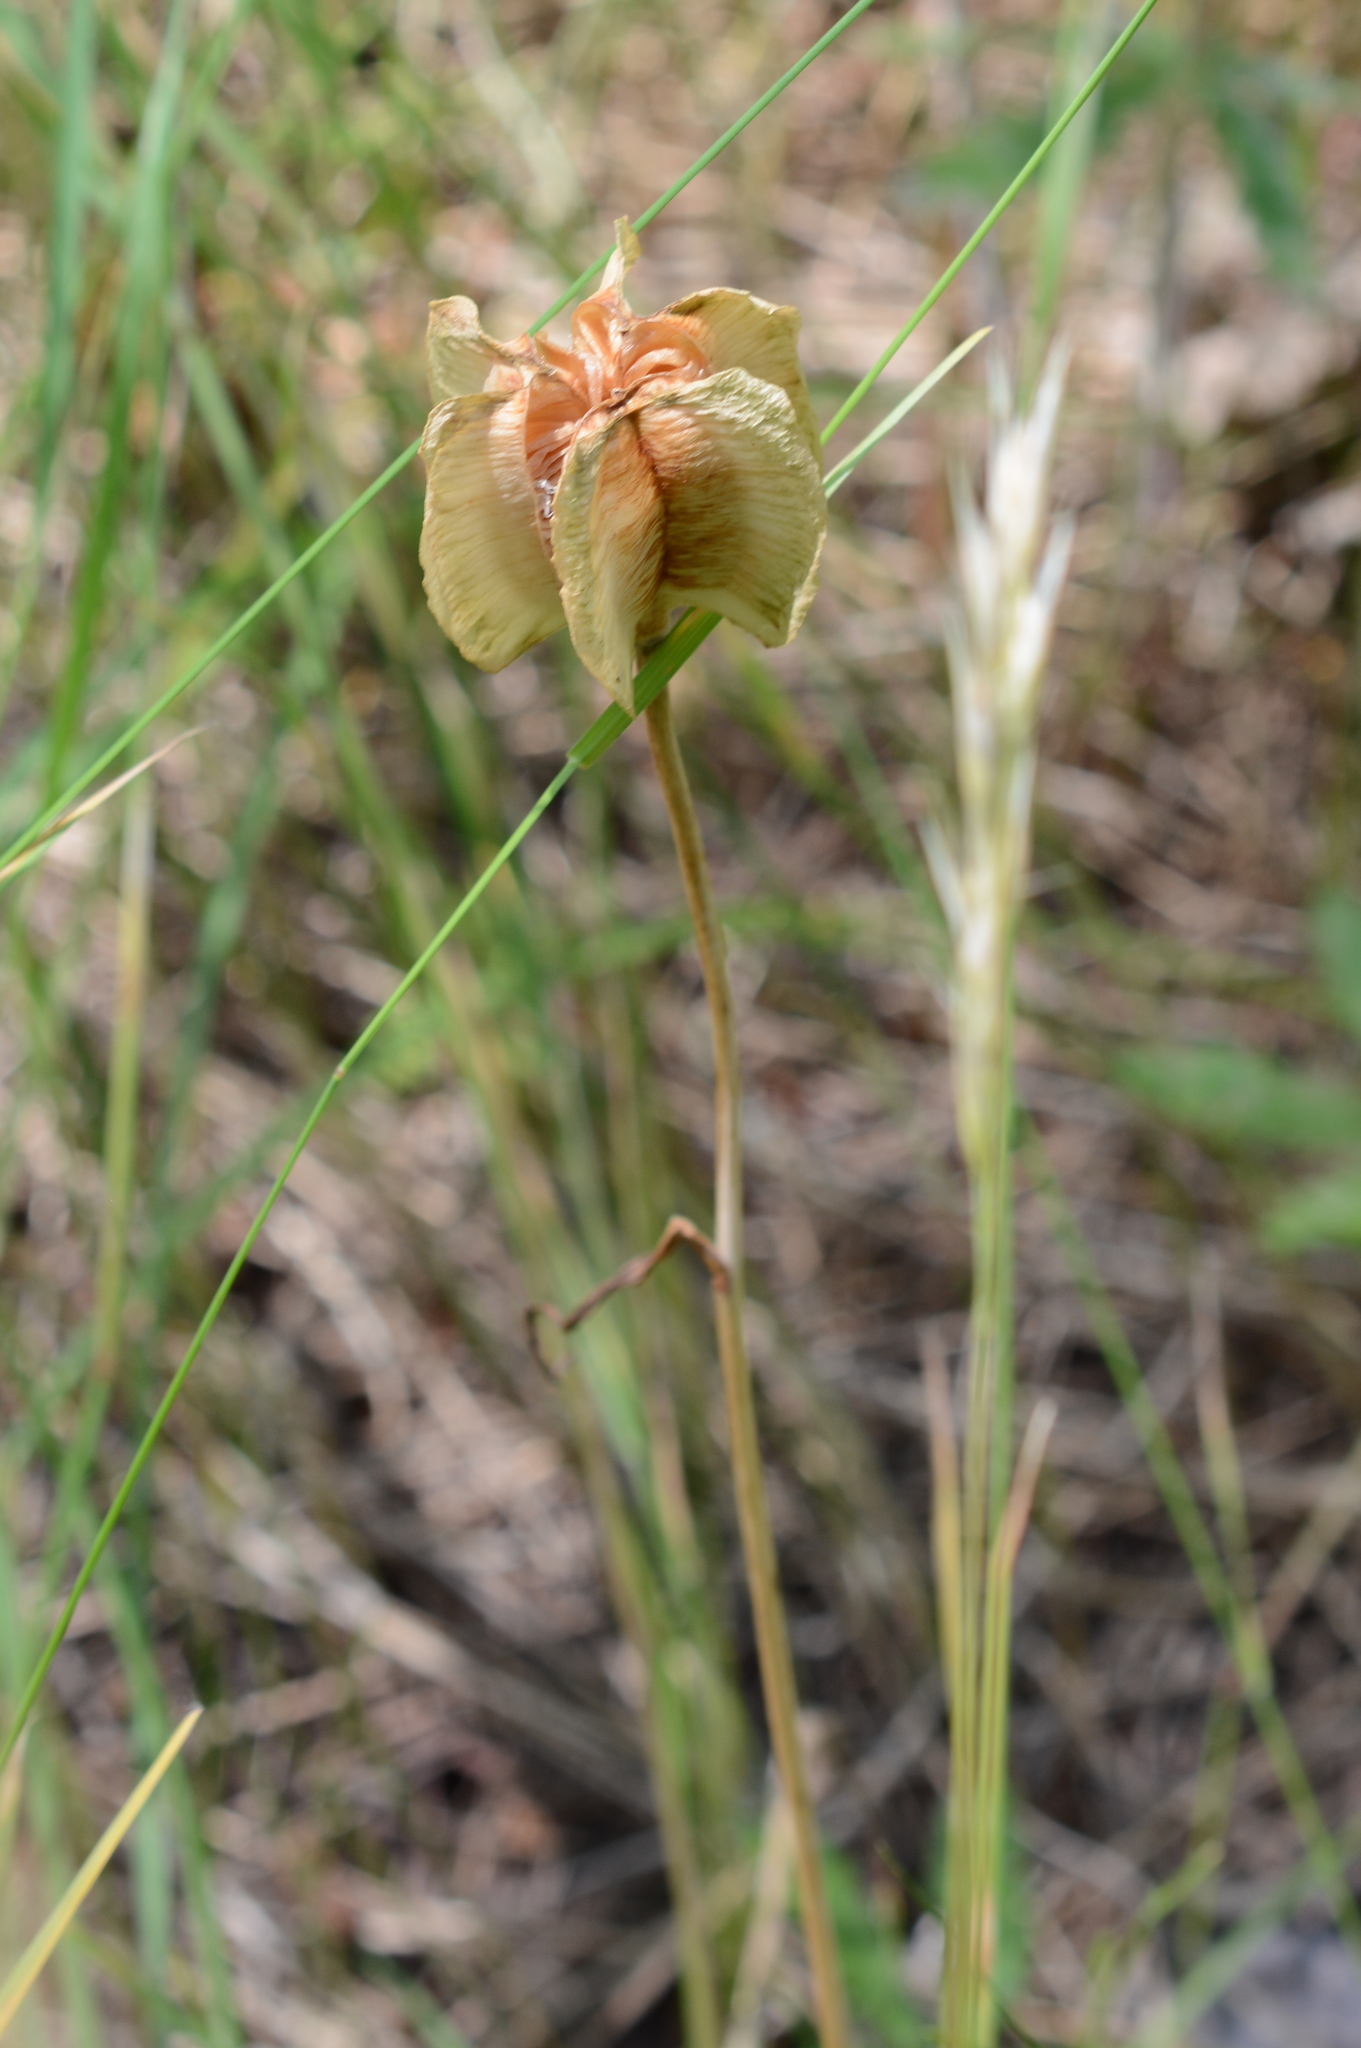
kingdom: Plantae
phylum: Tracheophyta
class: Liliopsida
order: Liliales
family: Liliaceae
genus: Fritillaria
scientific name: Fritillaria affinis
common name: Ojai fritillary
